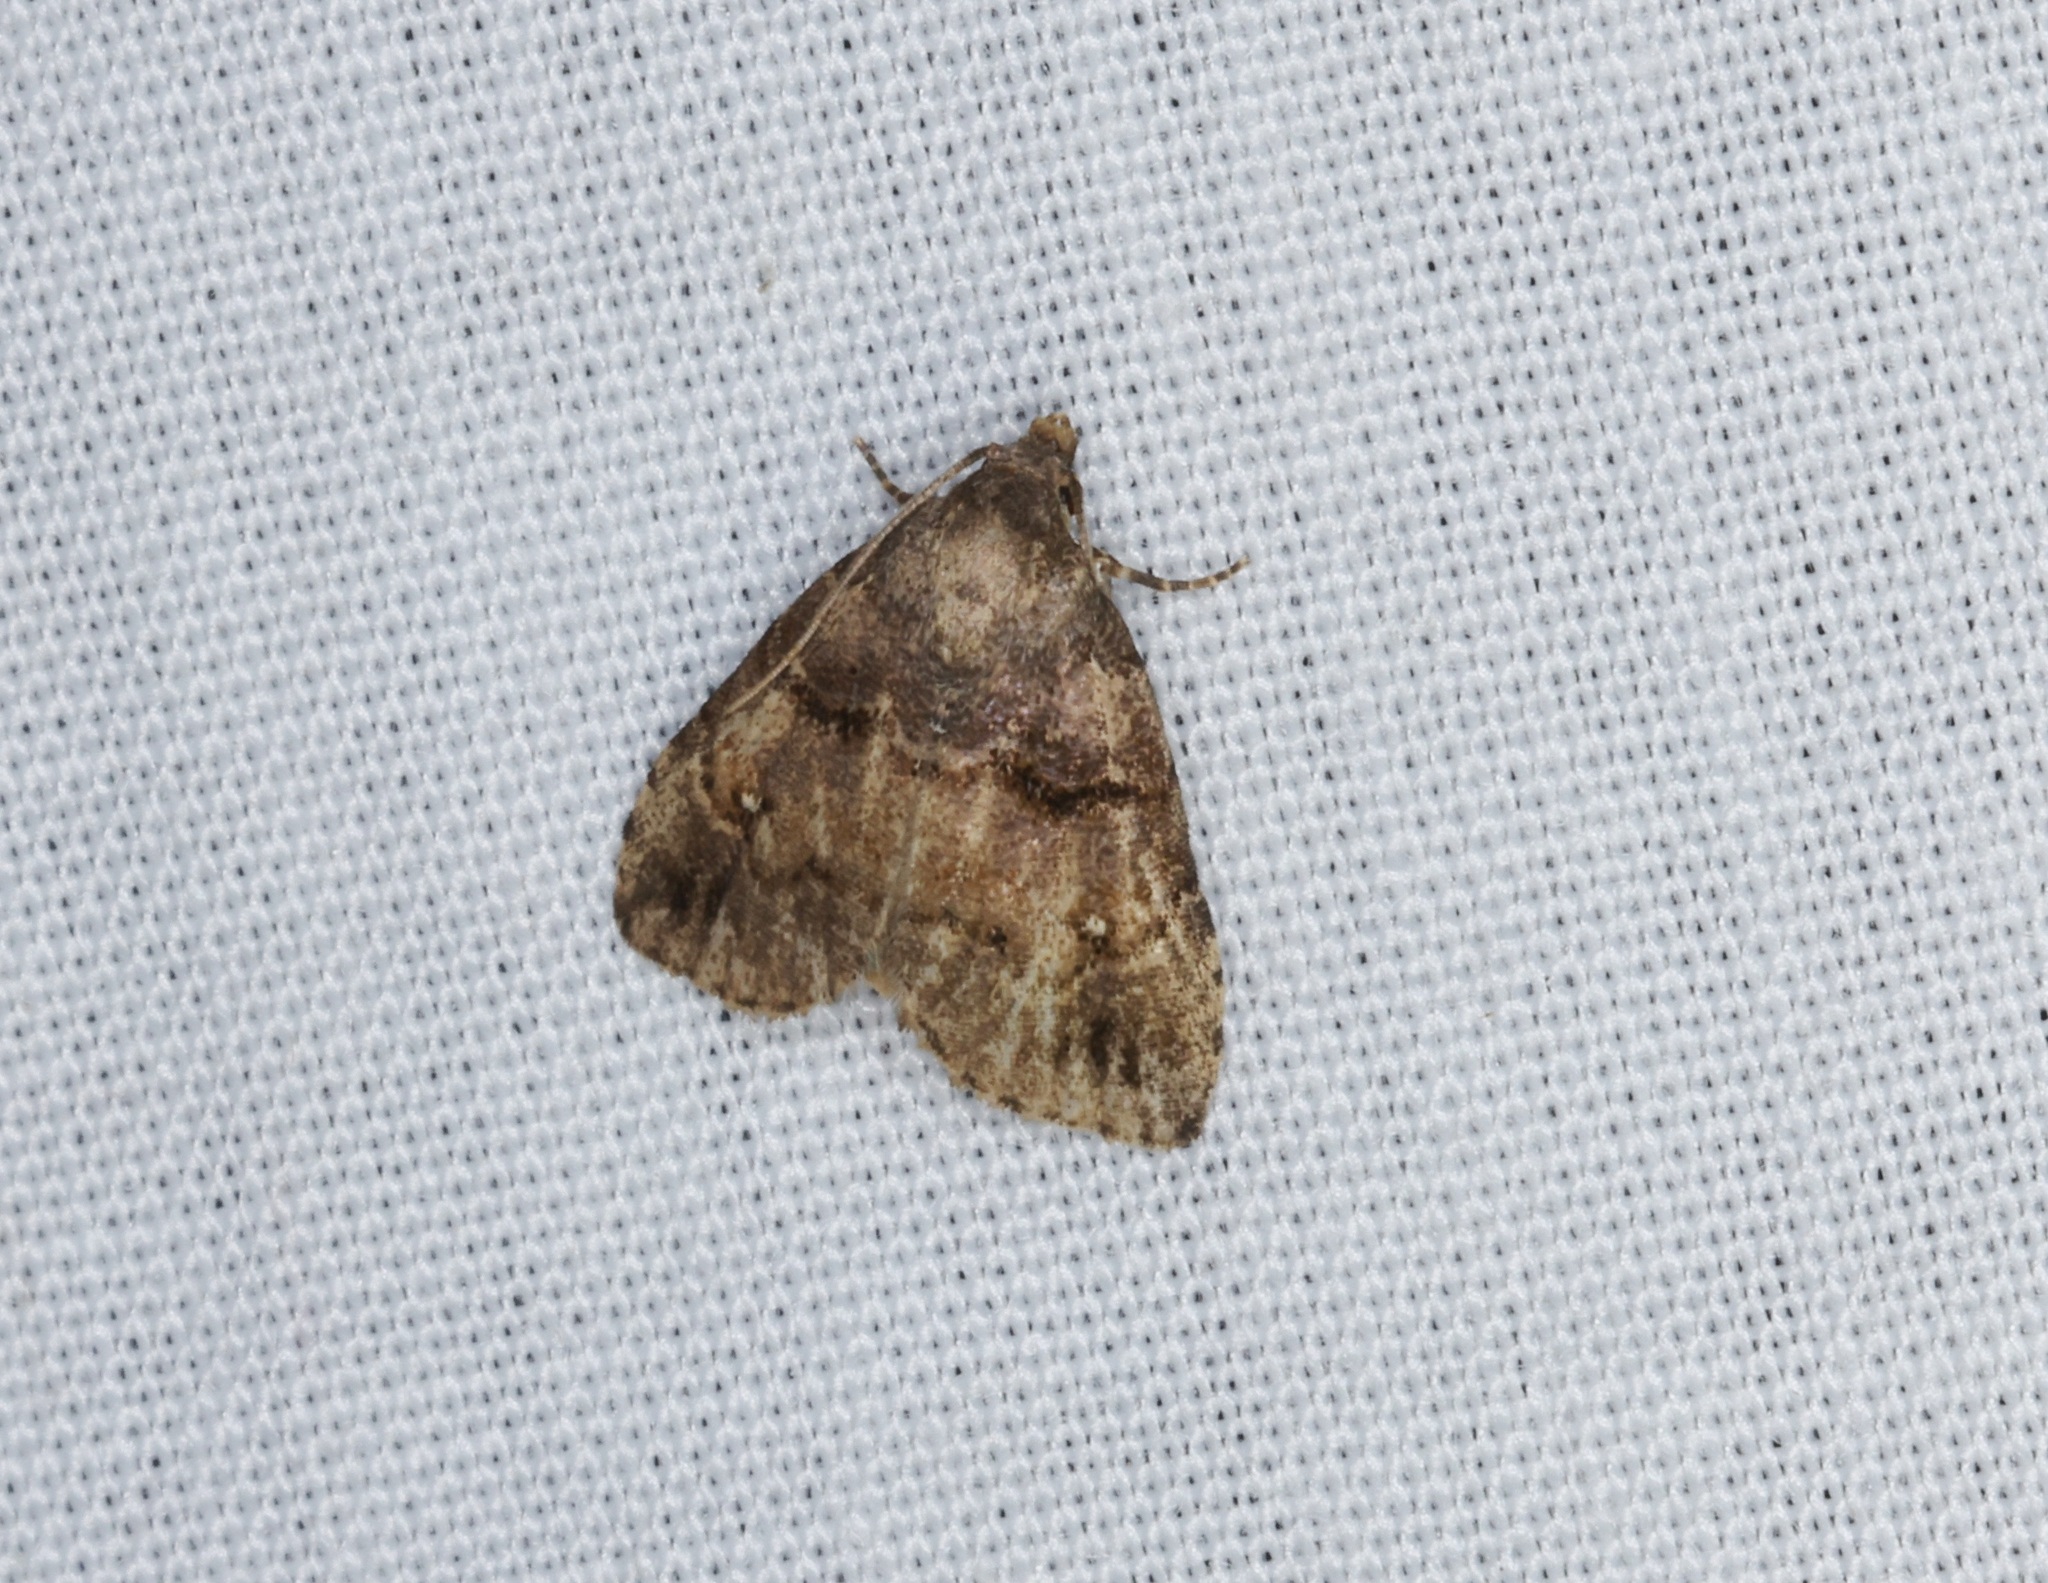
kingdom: Animalia
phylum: Arthropoda
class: Insecta
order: Lepidoptera
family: Erebidae
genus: Bellulia
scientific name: Bellulia galsworthyi
